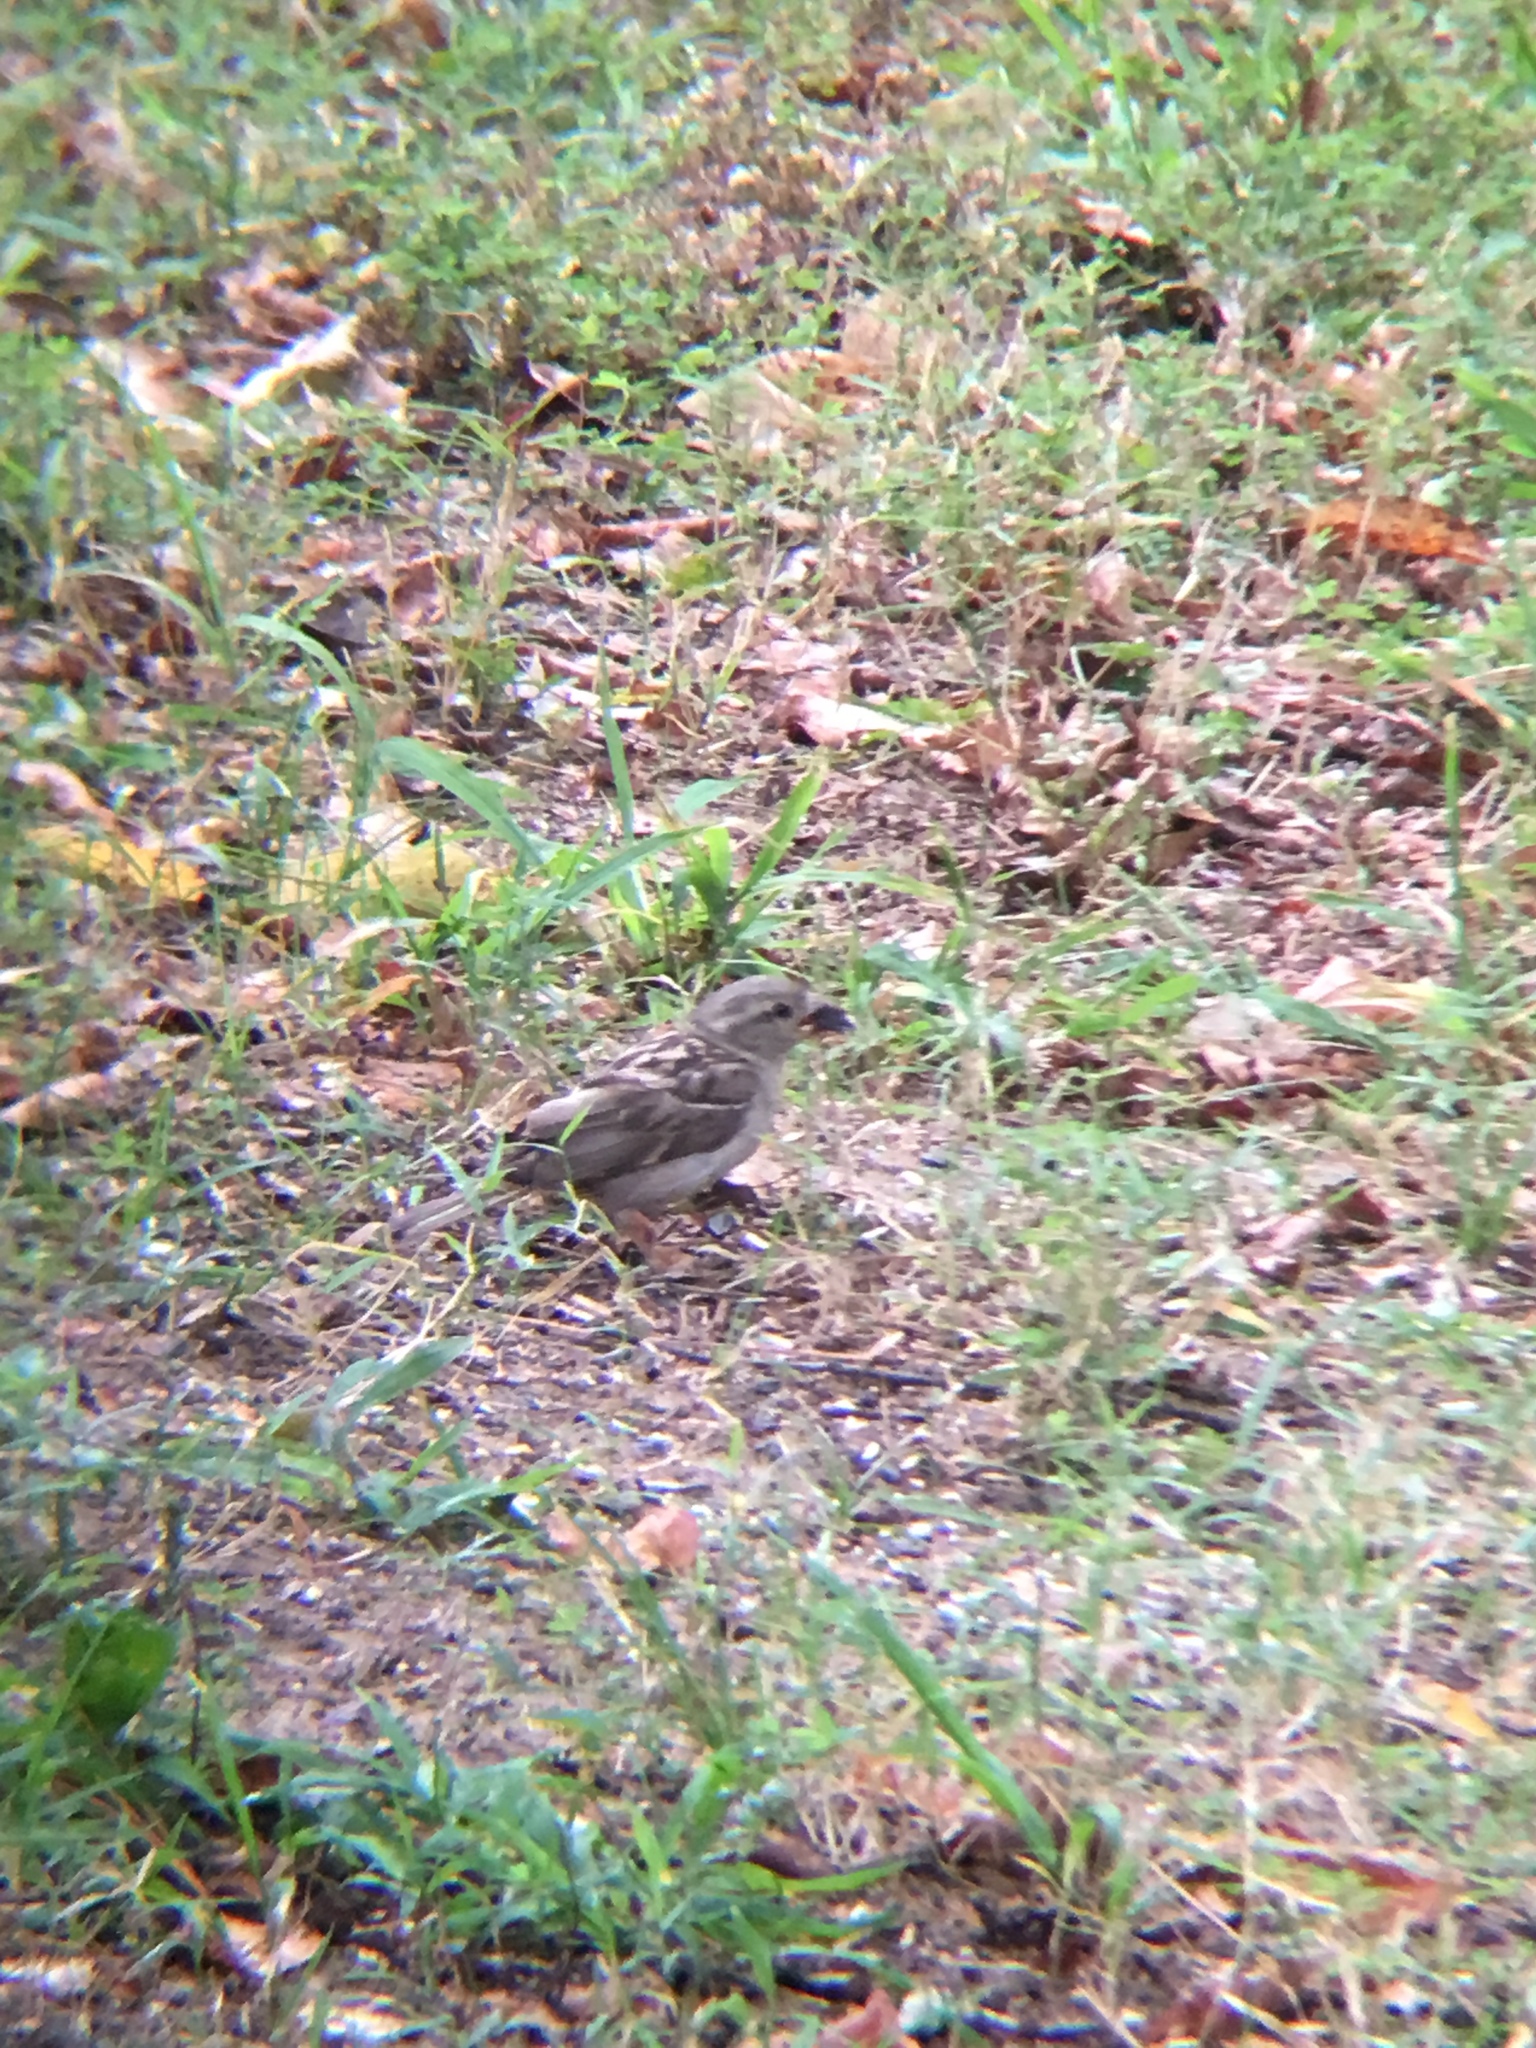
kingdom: Animalia
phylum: Chordata
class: Aves
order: Passeriformes
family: Passeridae
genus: Passer
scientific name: Passer domesticus
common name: House sparrow
